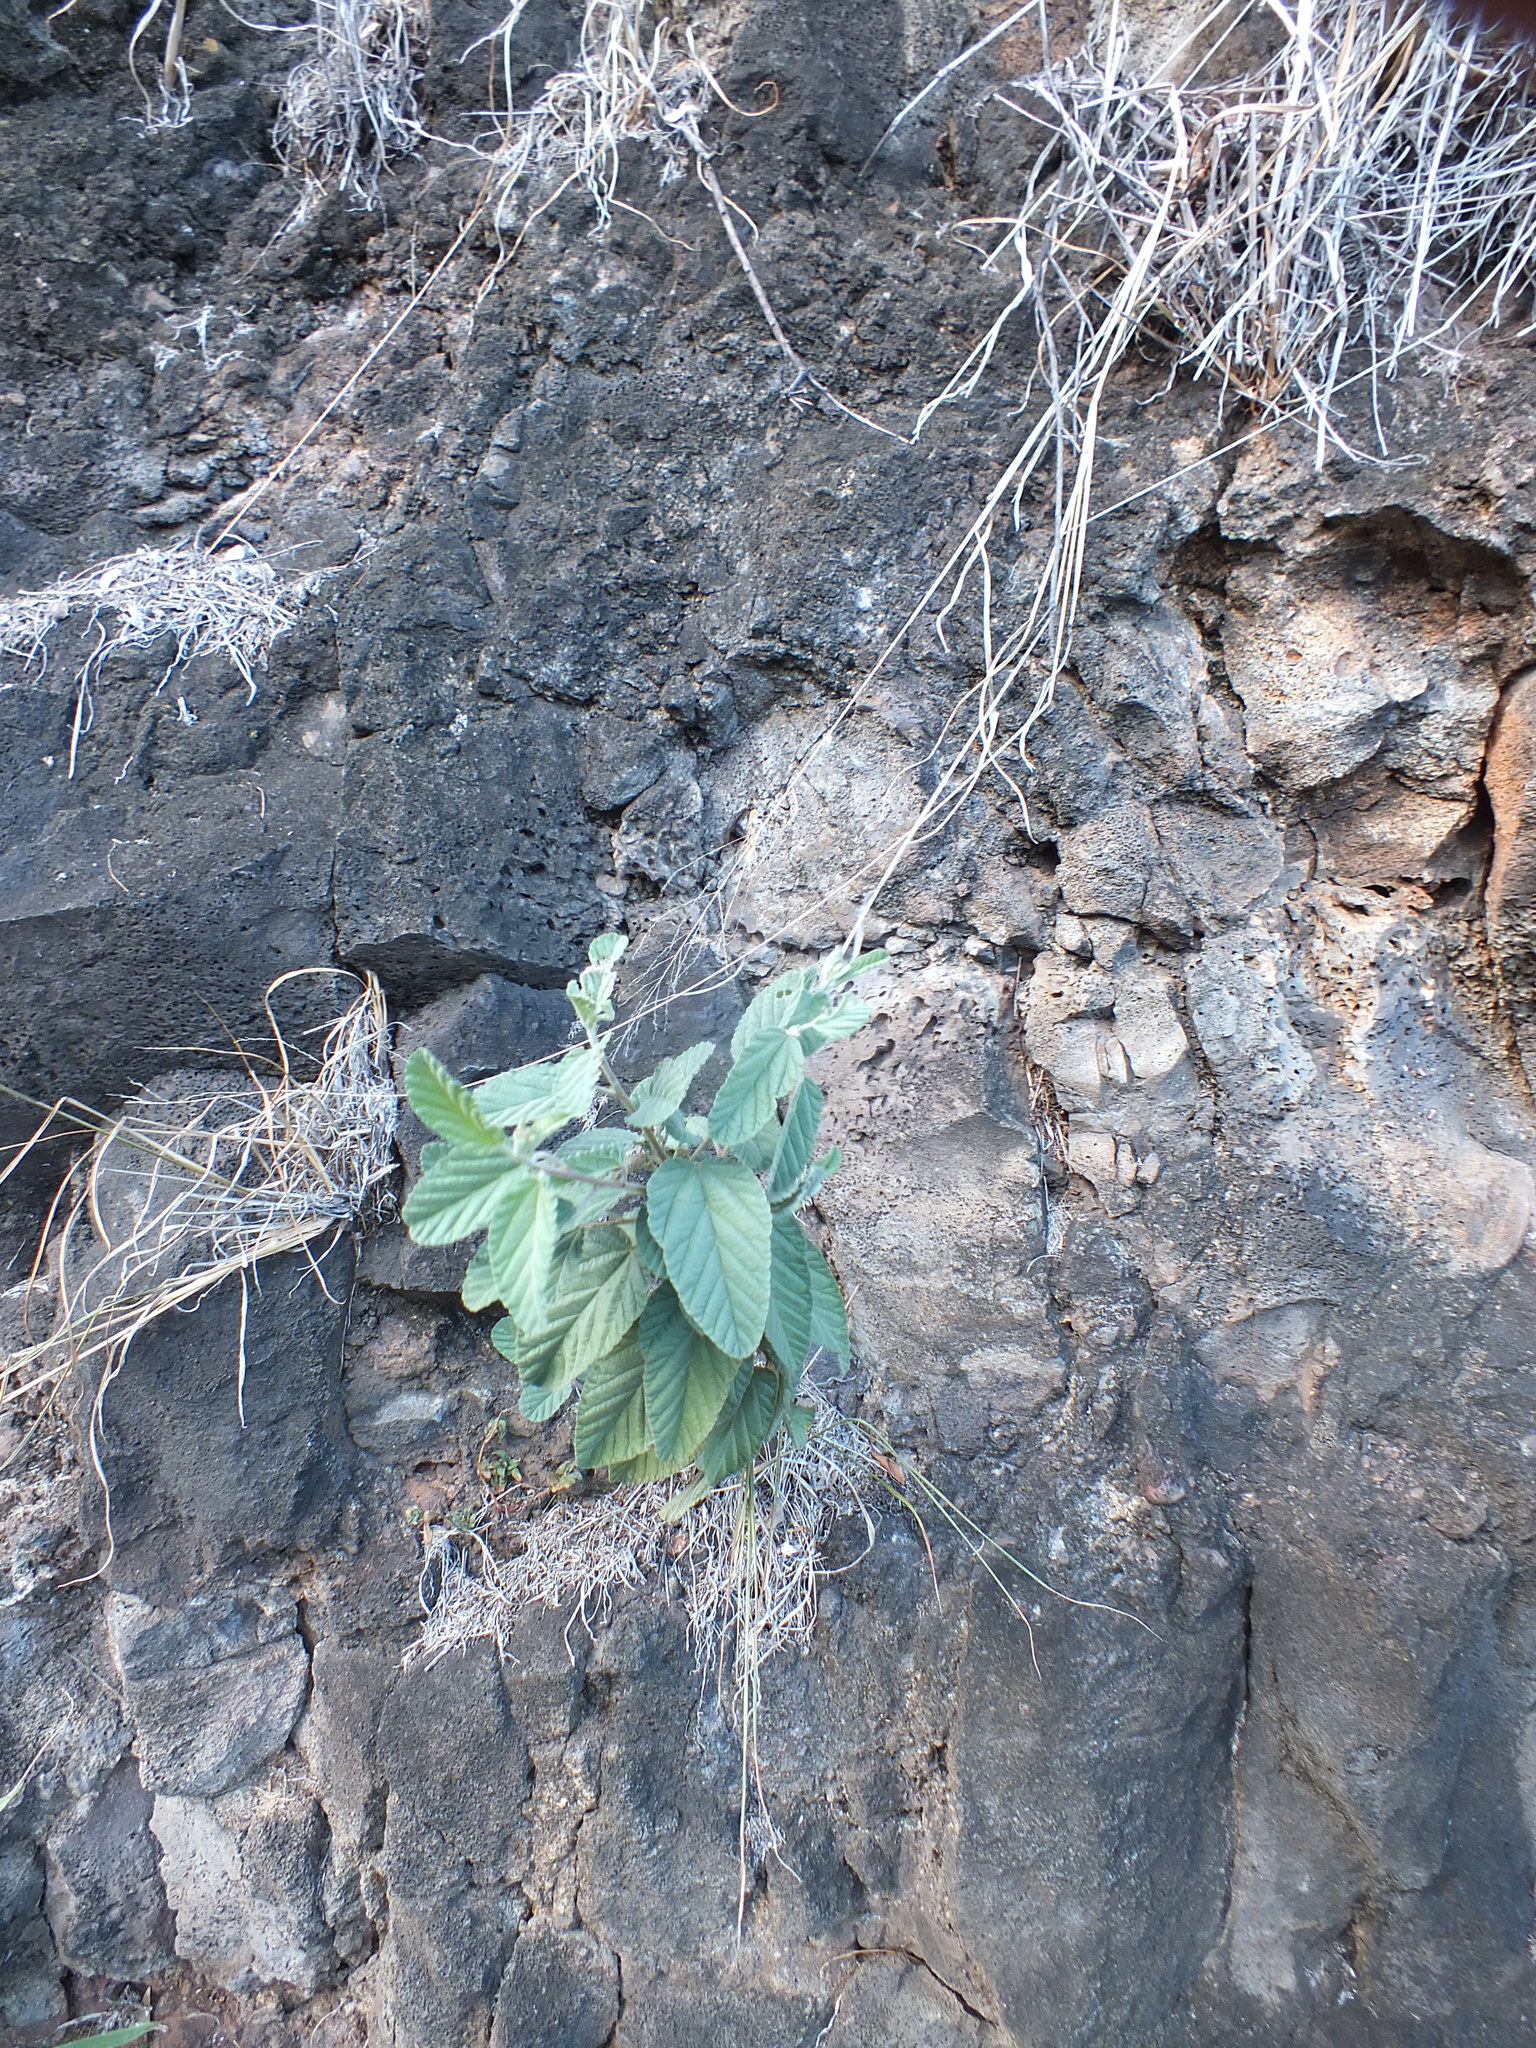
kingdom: Plantae
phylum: Tracheophyta
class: Magnoliopsida
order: Malvales
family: Malvaceae
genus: Waltheria
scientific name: Waltheria indica
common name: Leather-coat
